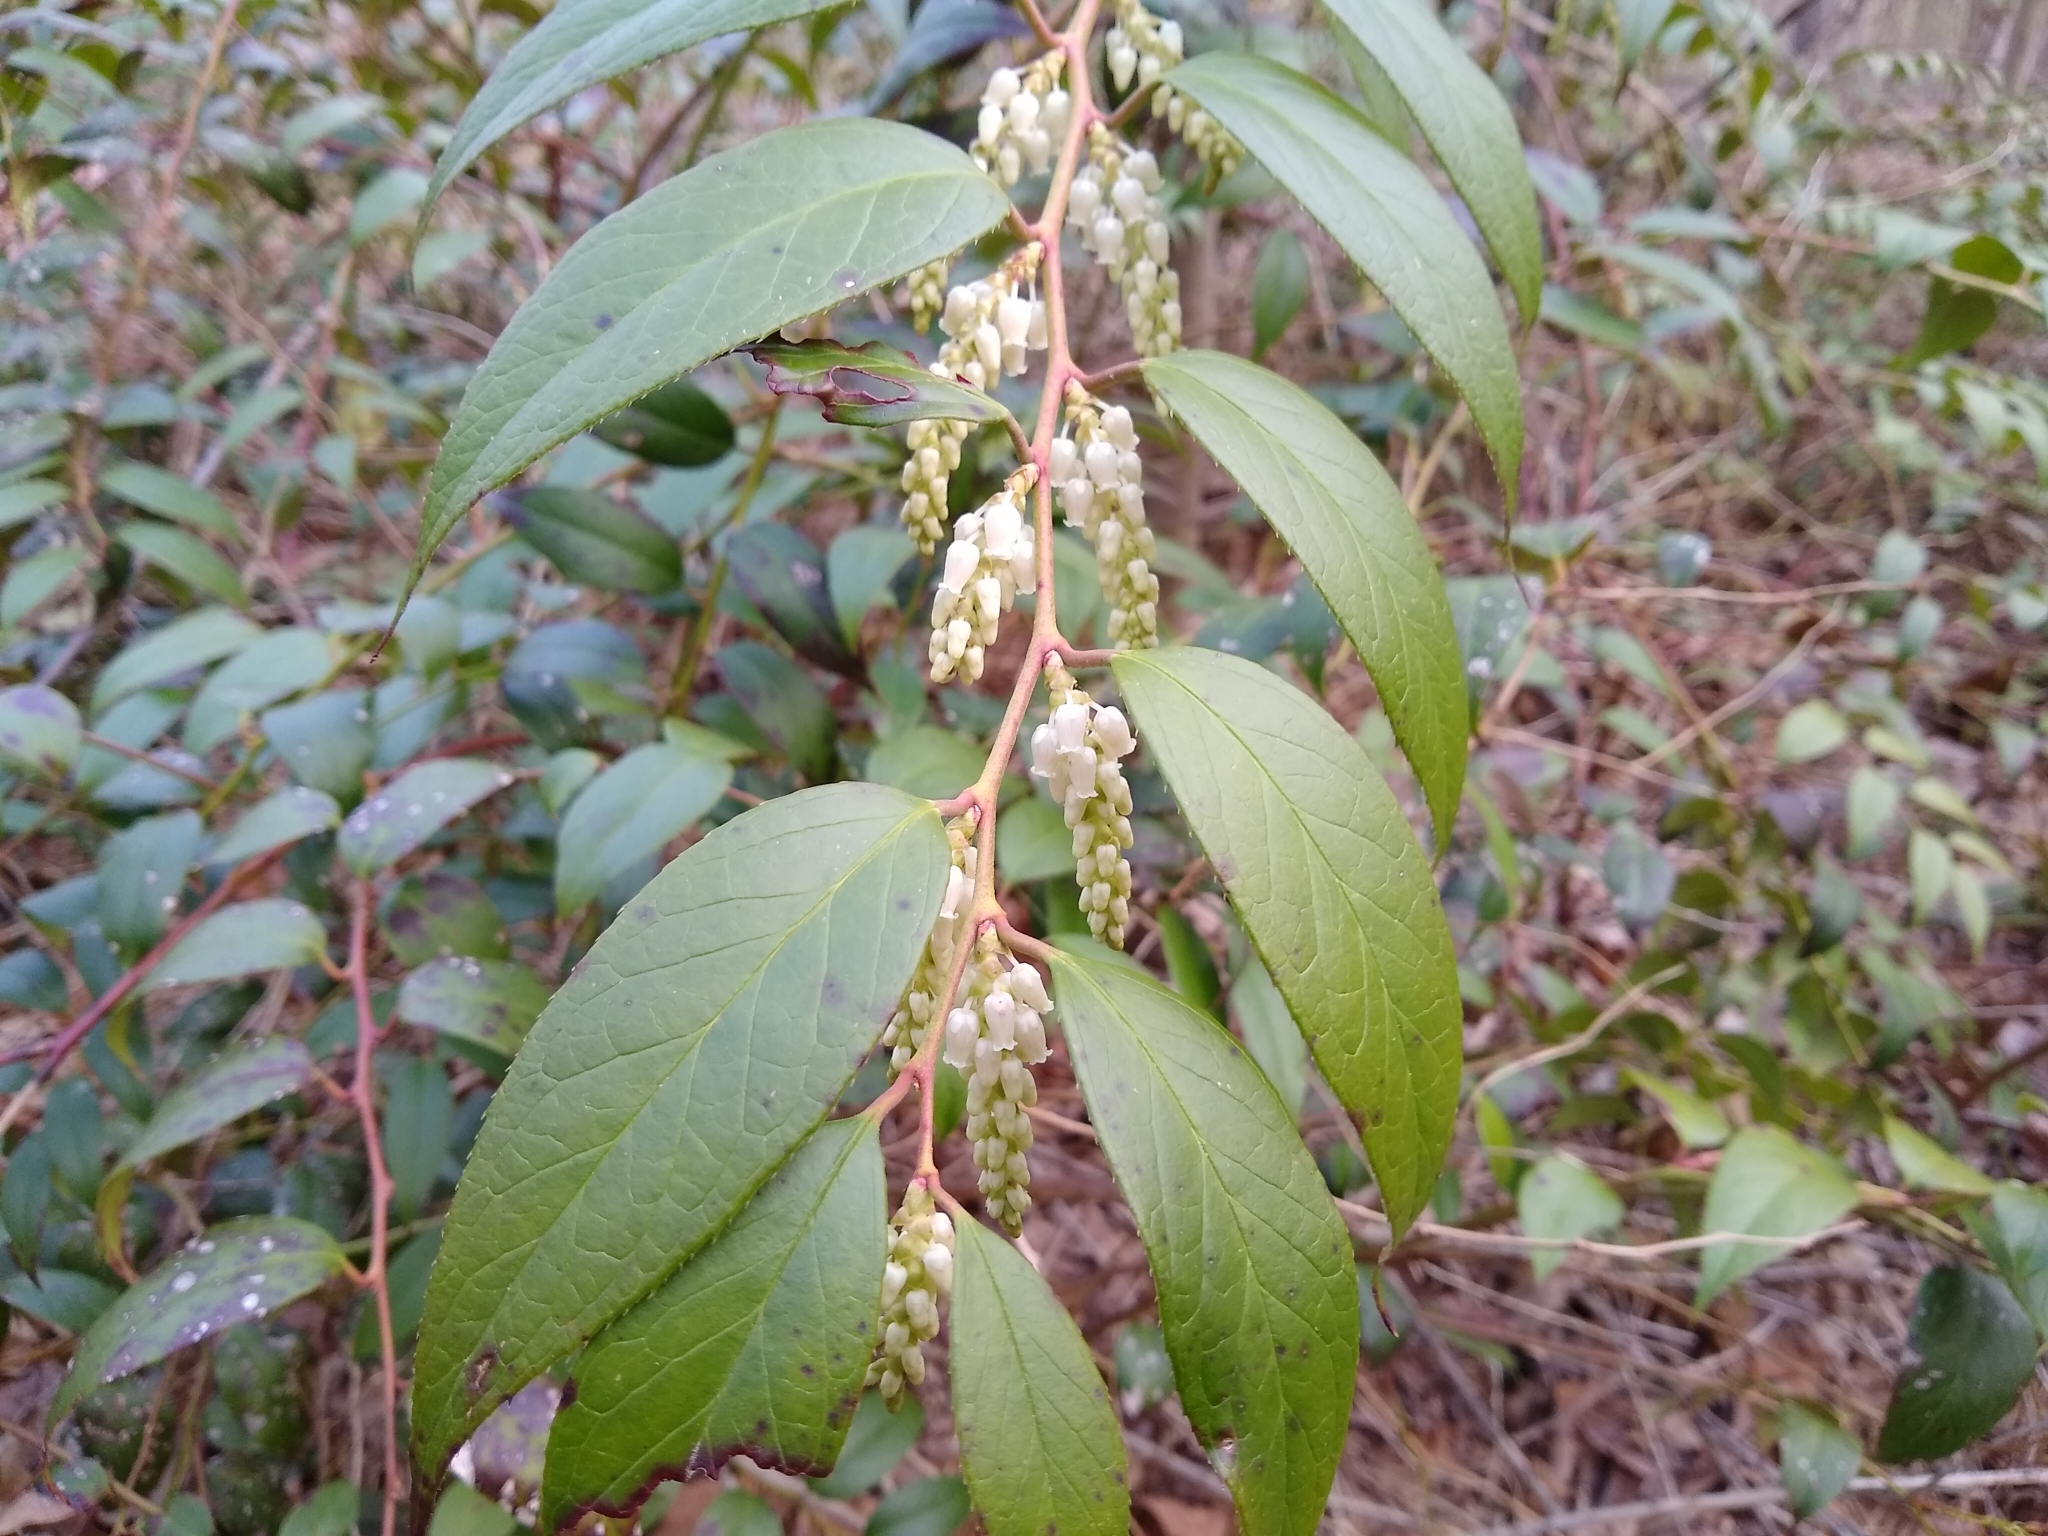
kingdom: Plantae
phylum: Tracheophyta
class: Magnoliopsida
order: Ericales
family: Ericaceae
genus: Leucothoe
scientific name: Leucothoe fontanesiana
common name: Fetterbush
